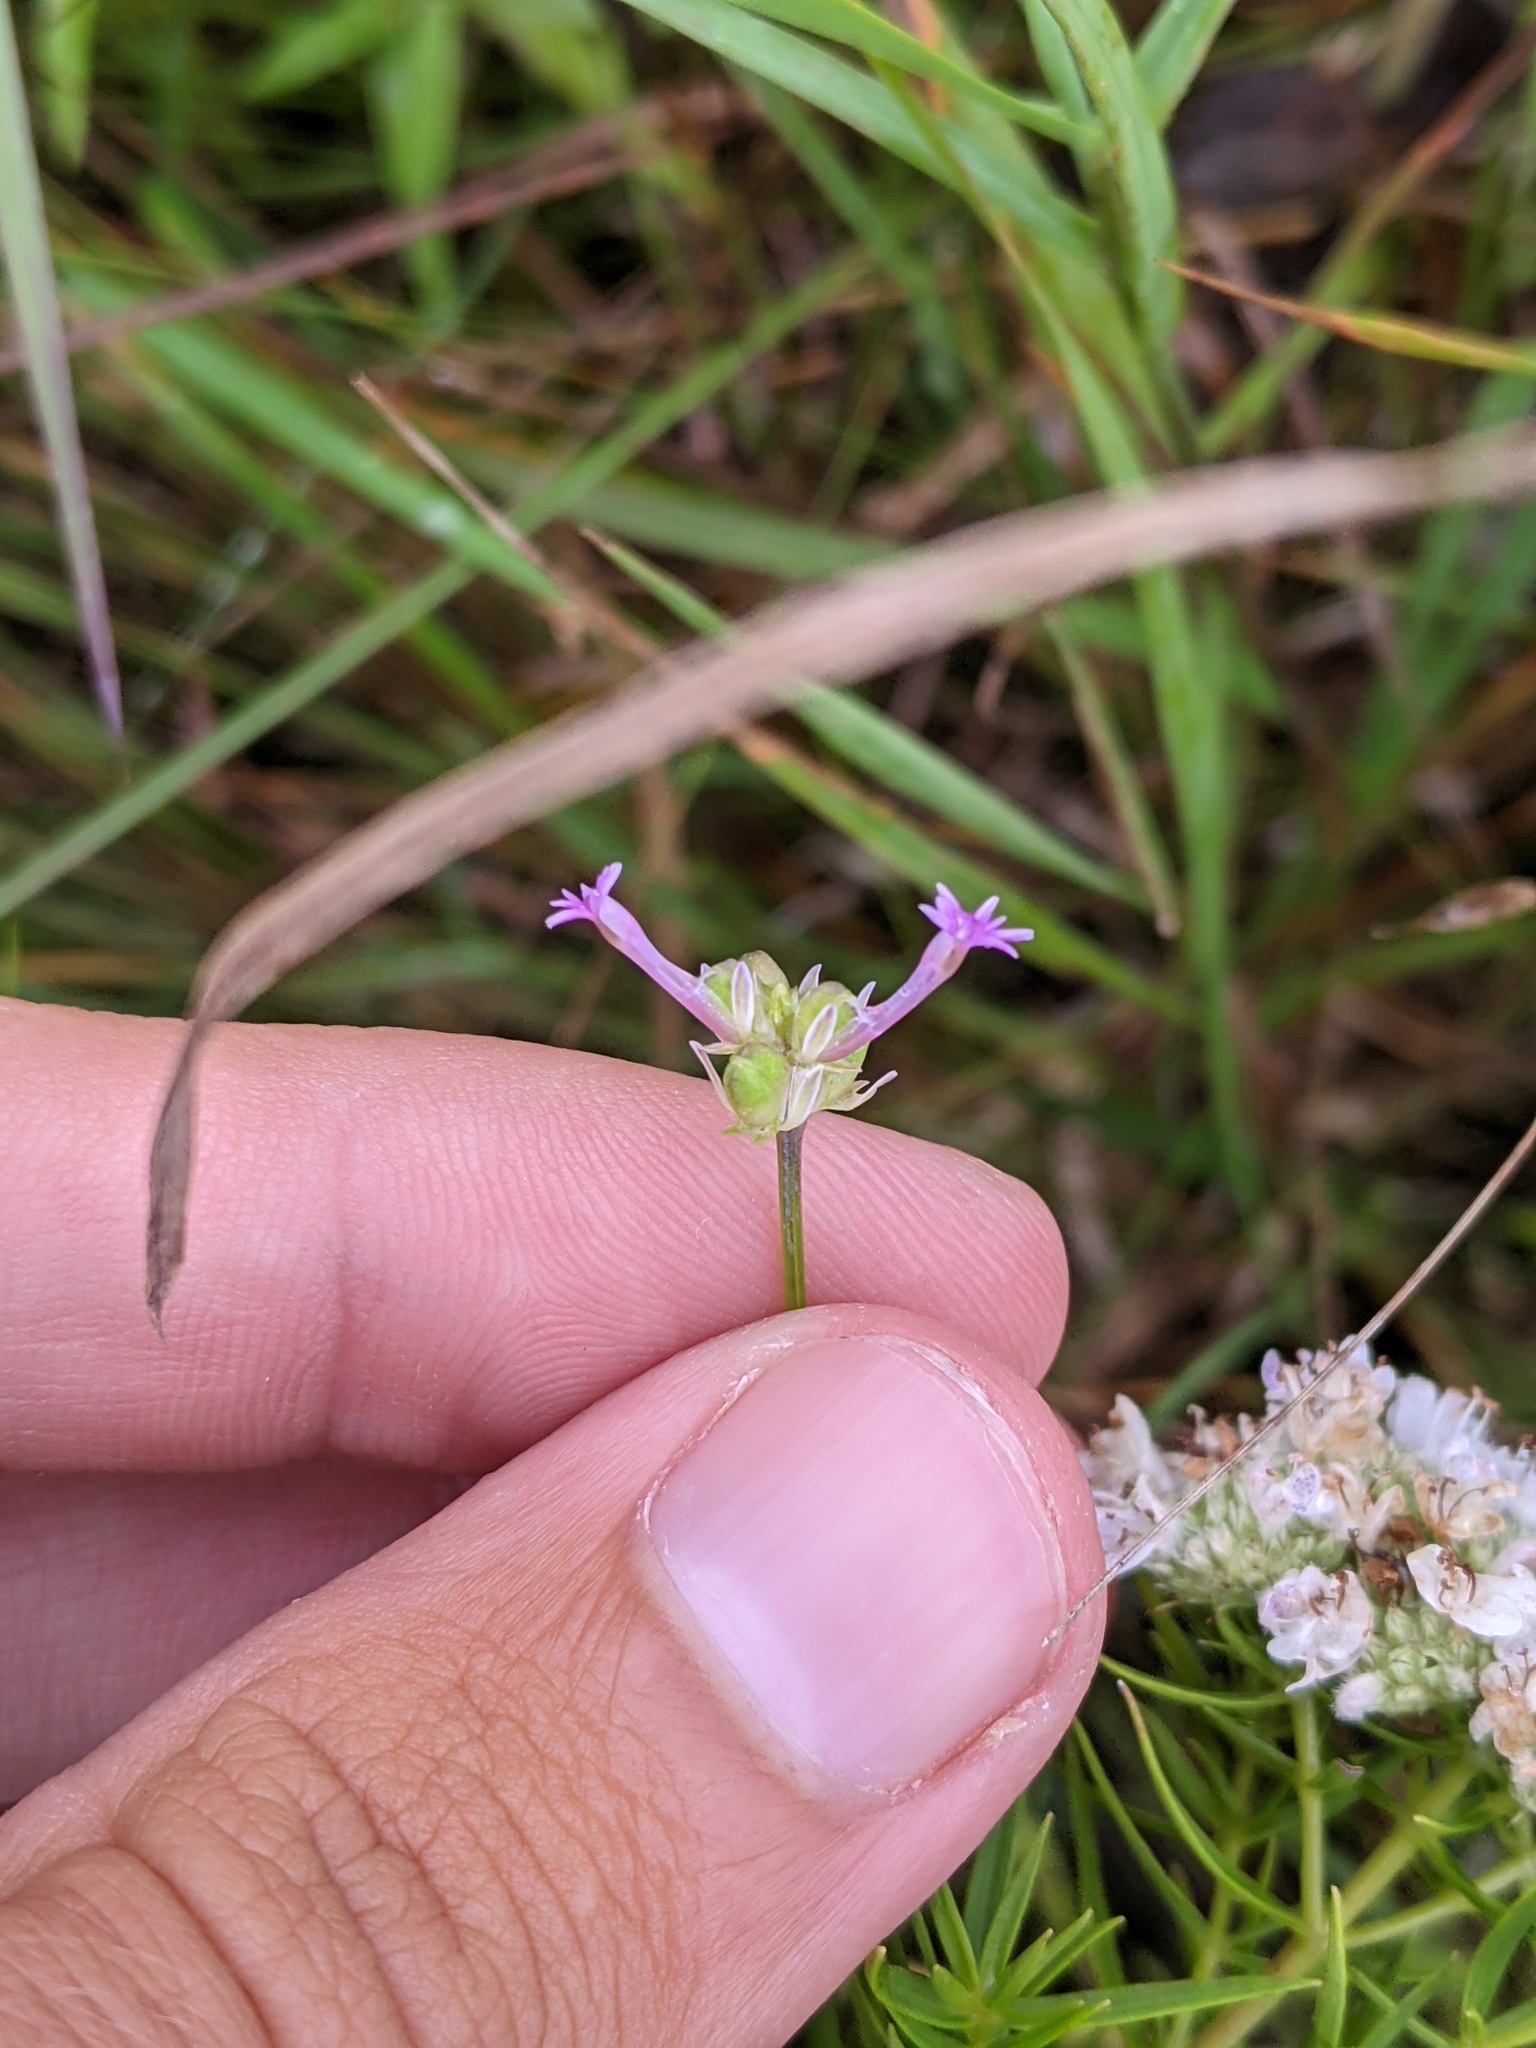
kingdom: Plantae
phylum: Tracheophyta
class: Magnoliopsida
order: Fabales
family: Polygalaceae
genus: Polygala
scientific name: Polygala incarnata
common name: Pink milkwort
